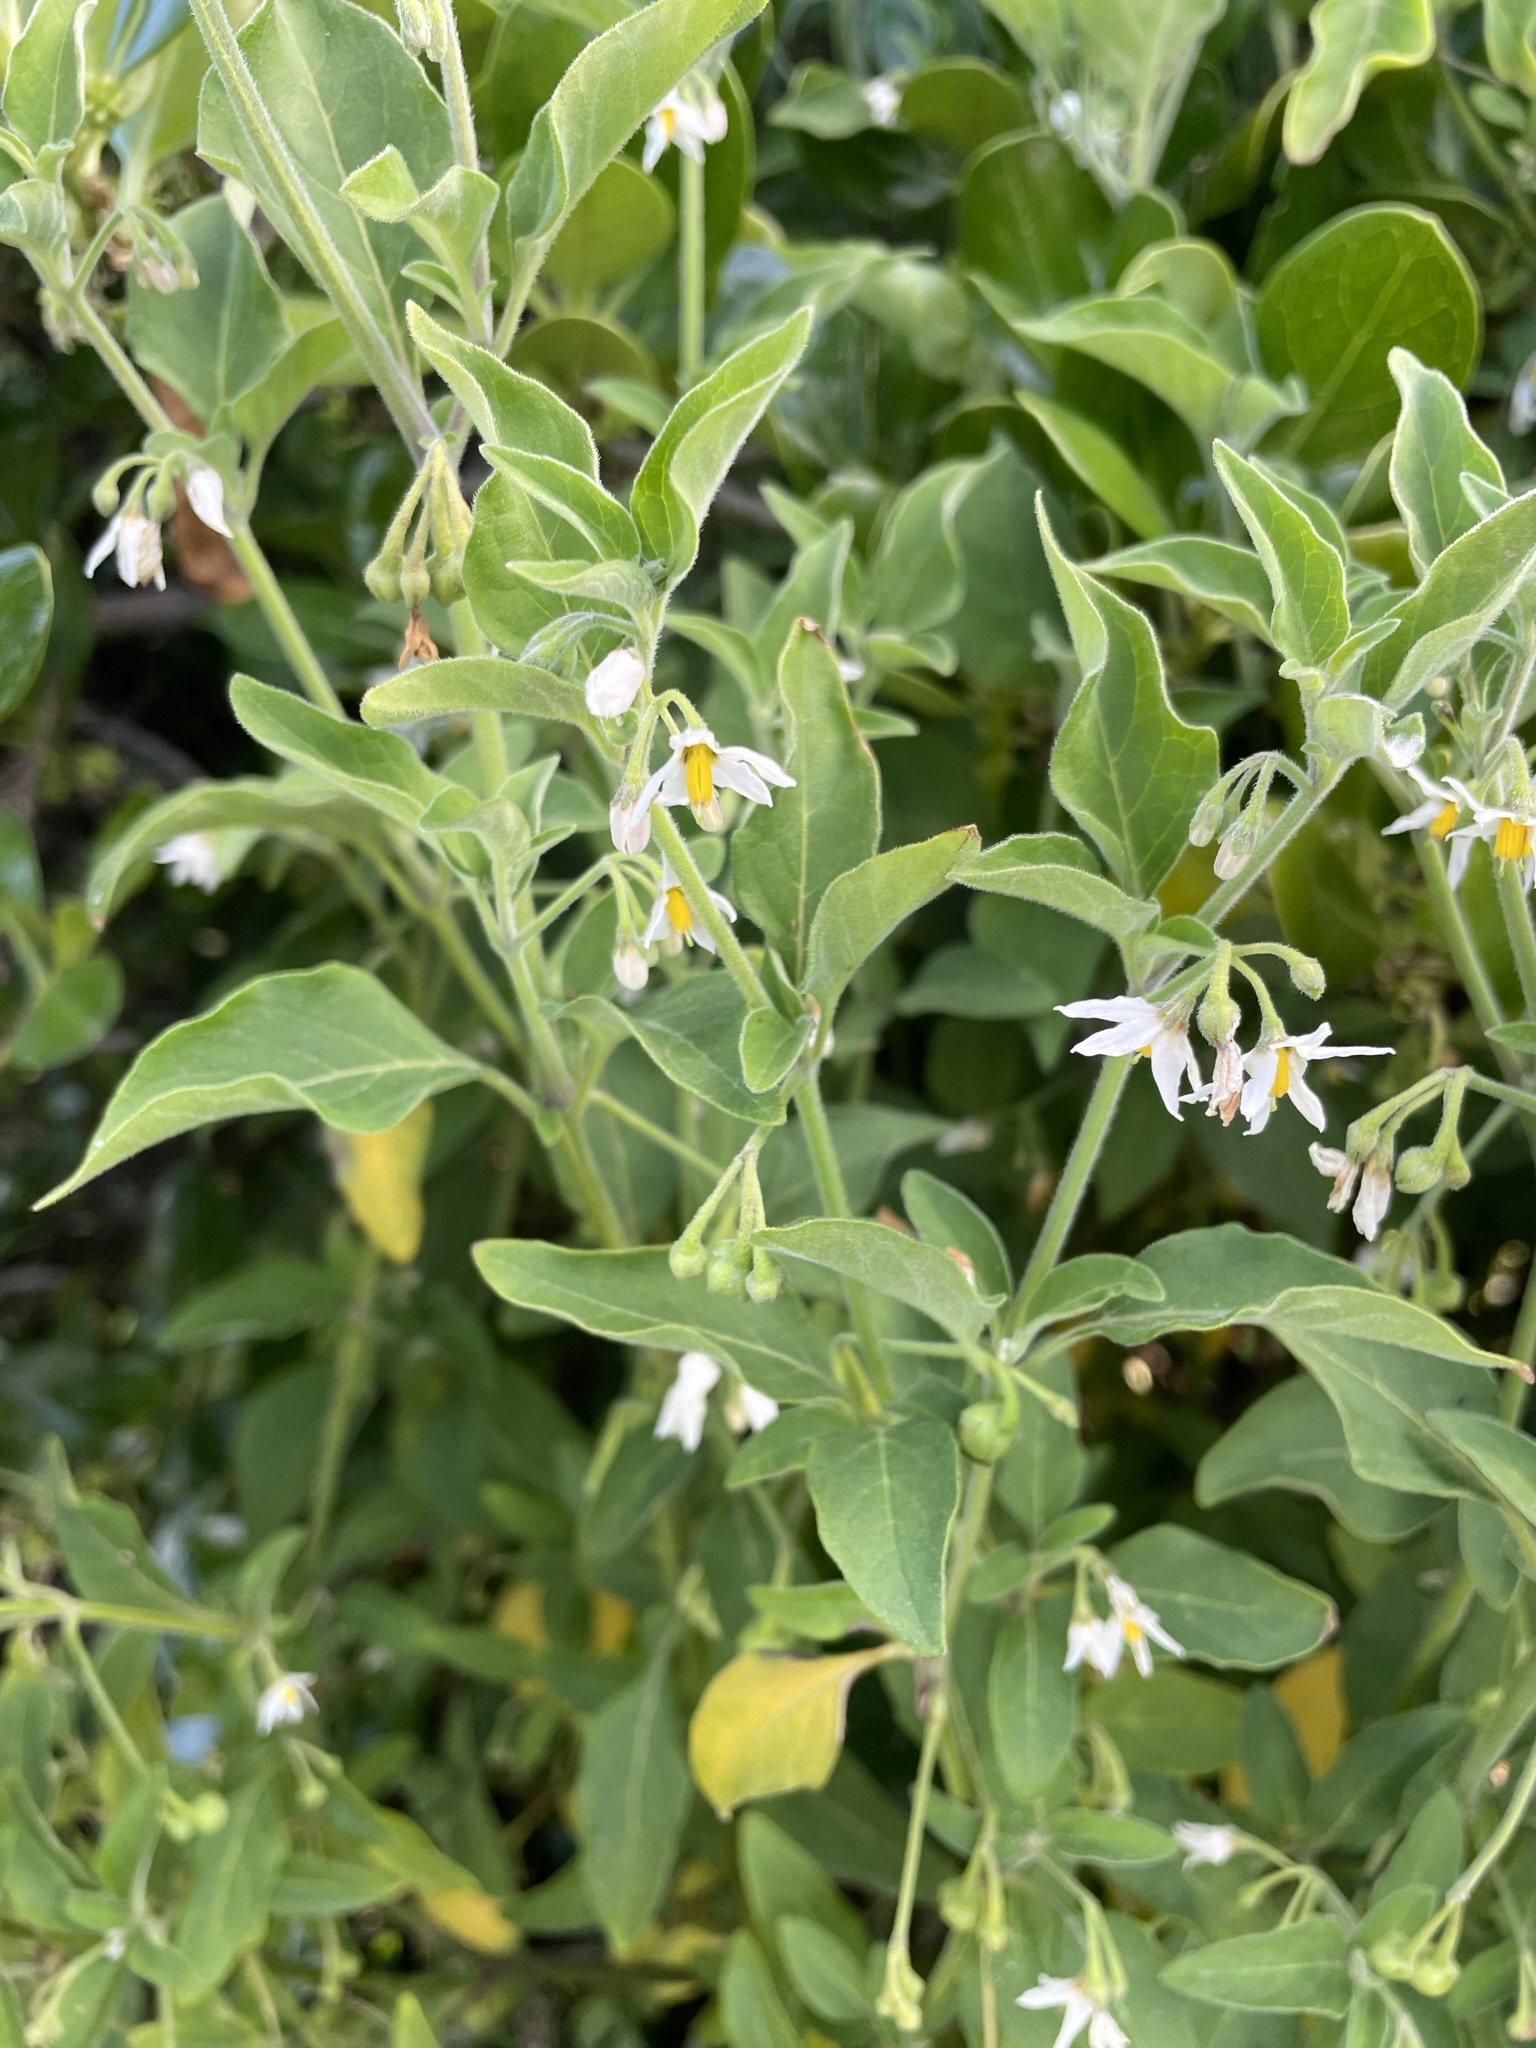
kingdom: Plantae
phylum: Tracheophyta
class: Magnoliopsida
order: Solanales
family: Solanaceae
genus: Solanum
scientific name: Solanum chenopodioides
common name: Tall nightshade
